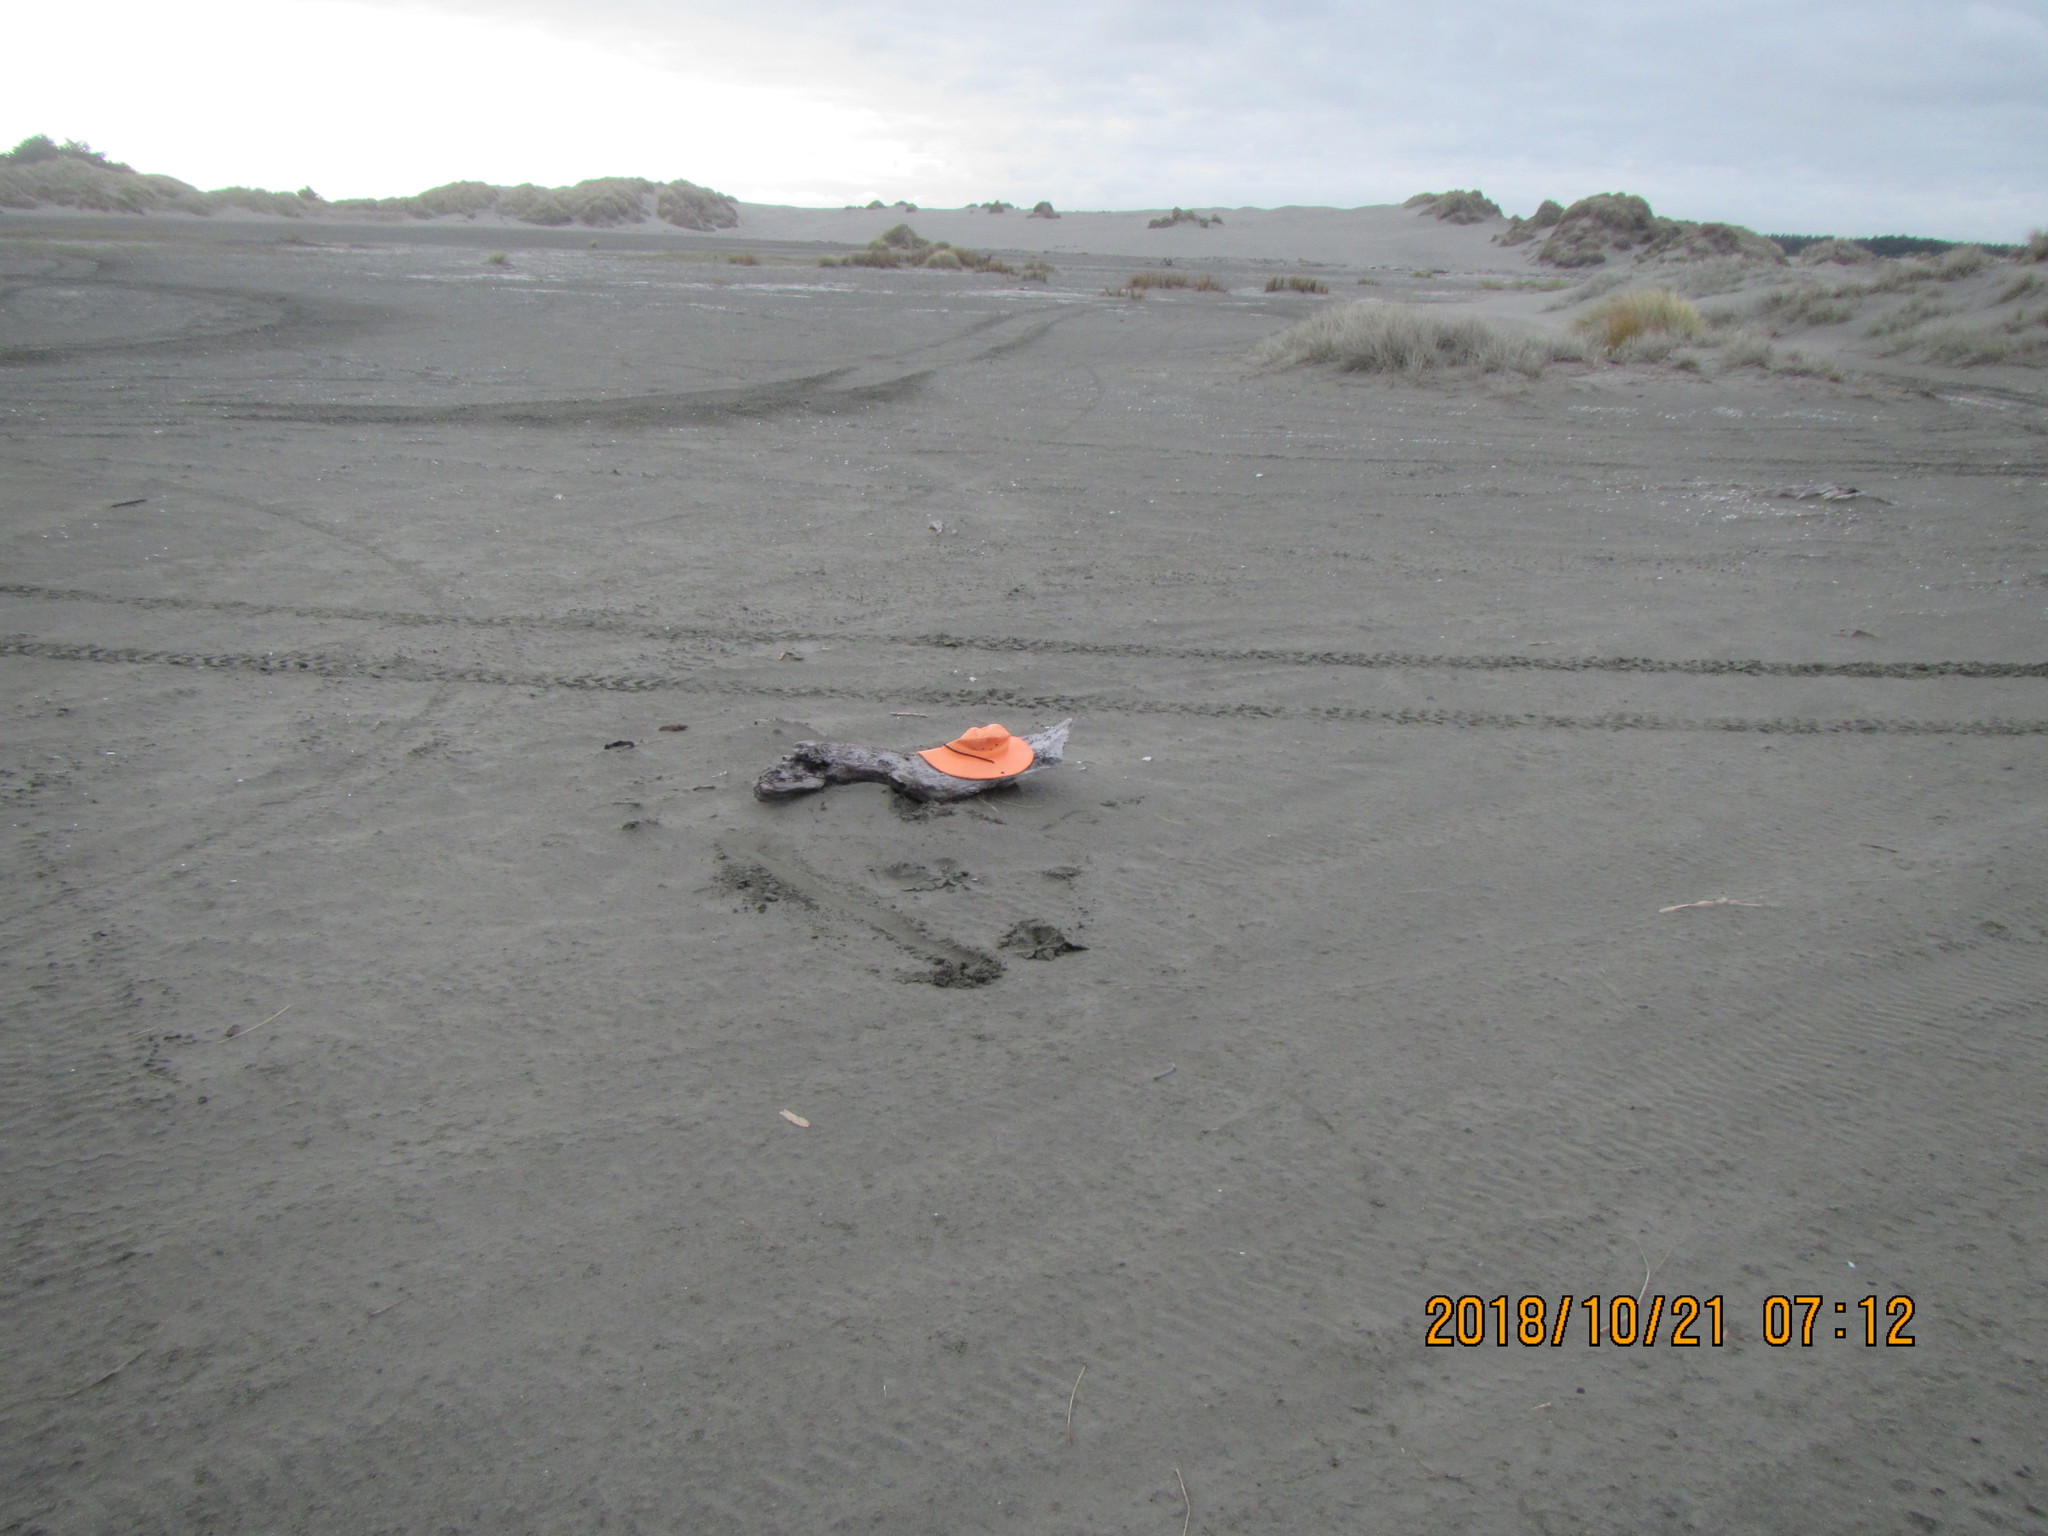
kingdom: Animalia
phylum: Arthropoda
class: Arachnida
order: Araneae
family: Theridiidae
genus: Steatoda
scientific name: Steatoda capensis
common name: Cobweb weaver
